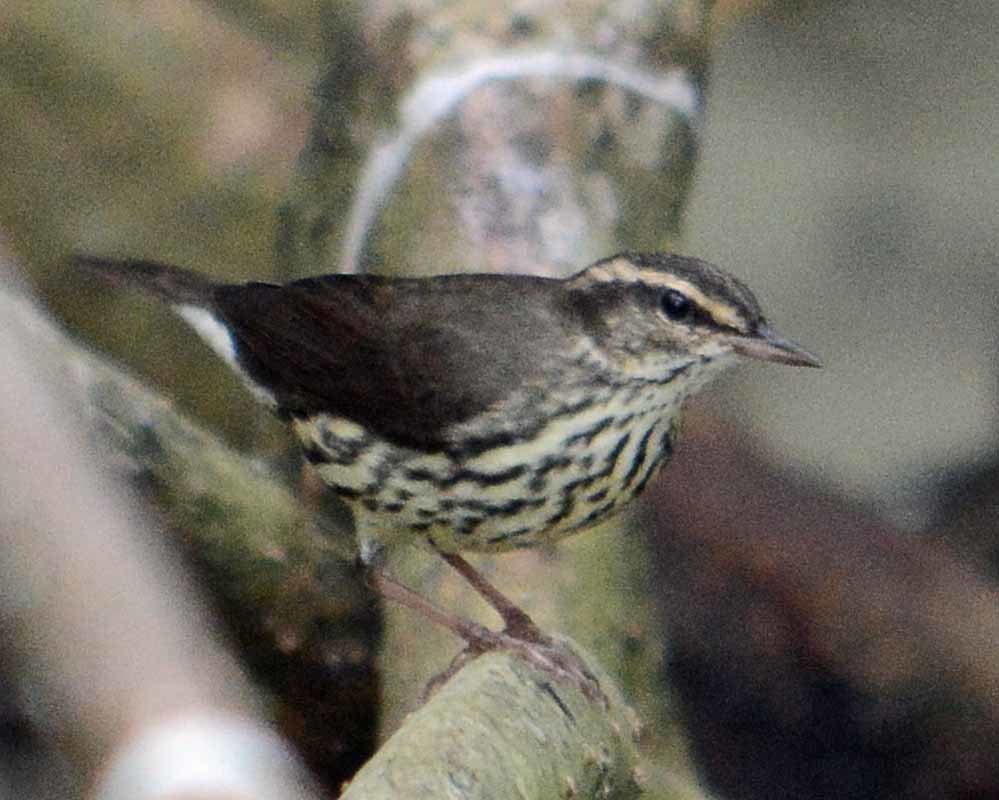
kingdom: Animalia
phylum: Chordata
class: Aves
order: Passeriformes
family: Parulidae
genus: Parkesia
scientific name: Parkesia noveboracensis
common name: Northern waterthrush
